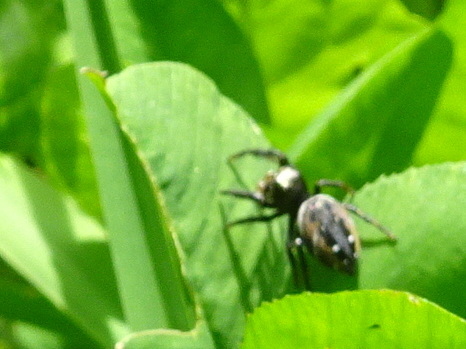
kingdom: Animalia
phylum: Arthropoda
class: Arachnida
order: Araneae
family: Salticidae
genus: Phidippus
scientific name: Phidippus clarus
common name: Brilliant jumping spider
